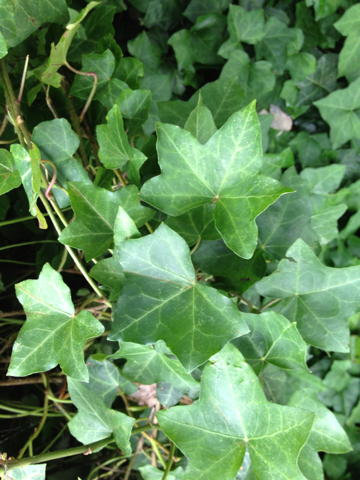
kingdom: Plantae
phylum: Tracheophyta
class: Magnoliopsida
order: Apiales
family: Araliaceae
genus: Hedera
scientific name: Hedera helix
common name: Ivy
